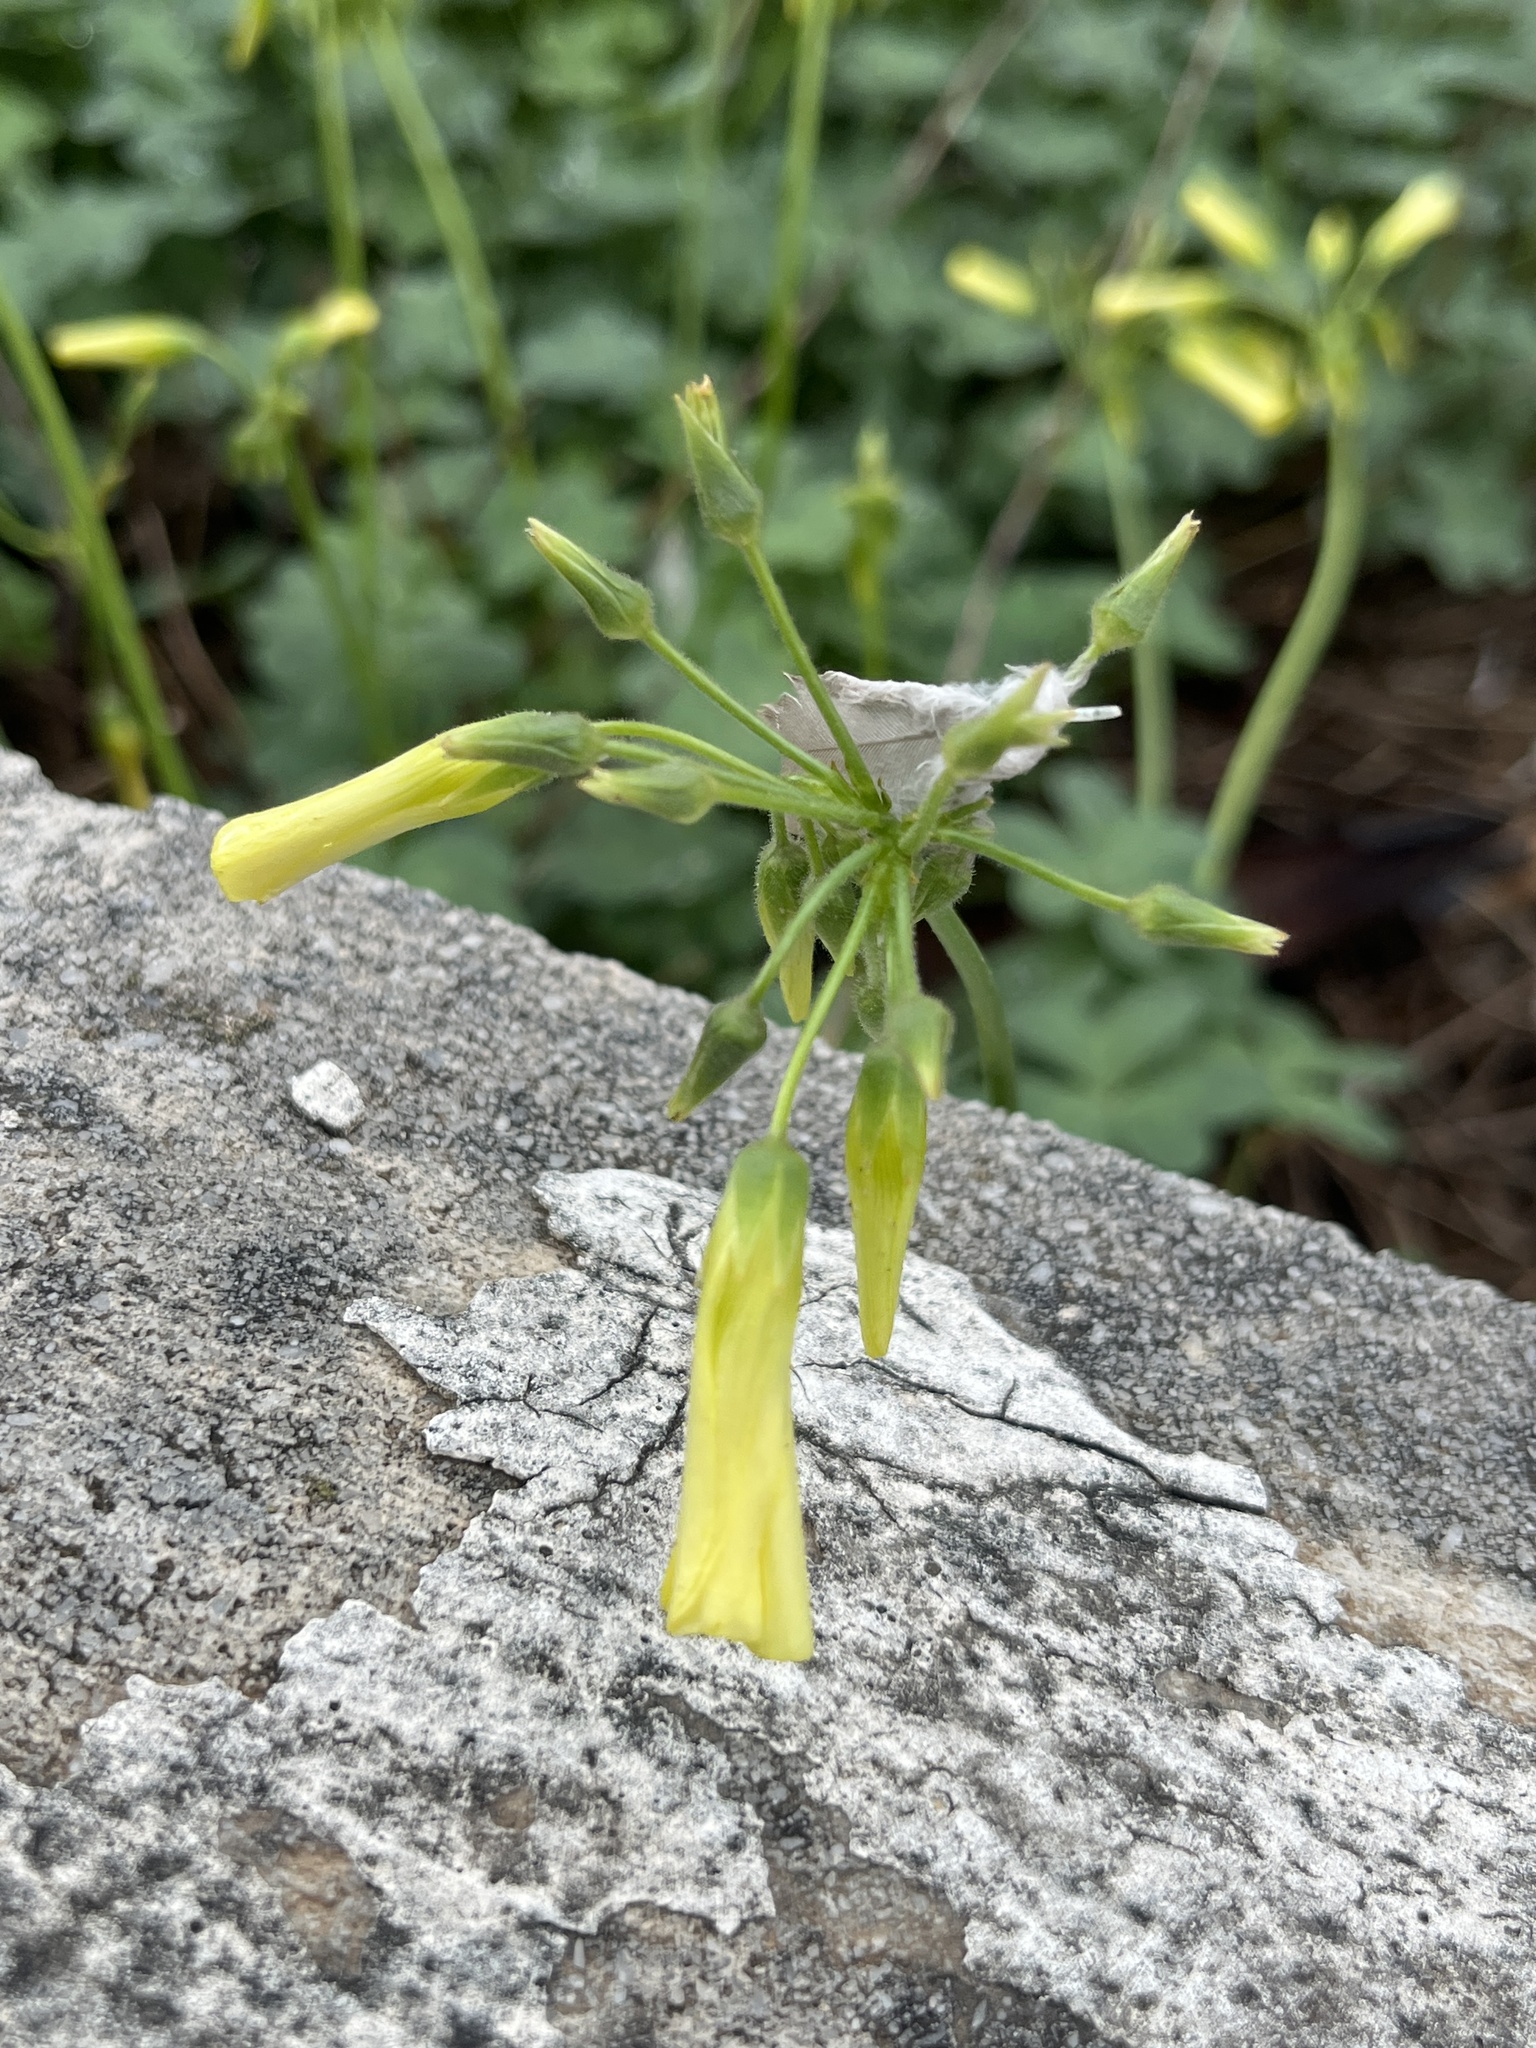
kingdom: Plantae
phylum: Tracheophyta
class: Magnoliopsida
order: Oxalidales
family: Oxalidaceae
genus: Oxalis
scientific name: Oxalis pes-caprae
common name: Bermuda-buttercup
